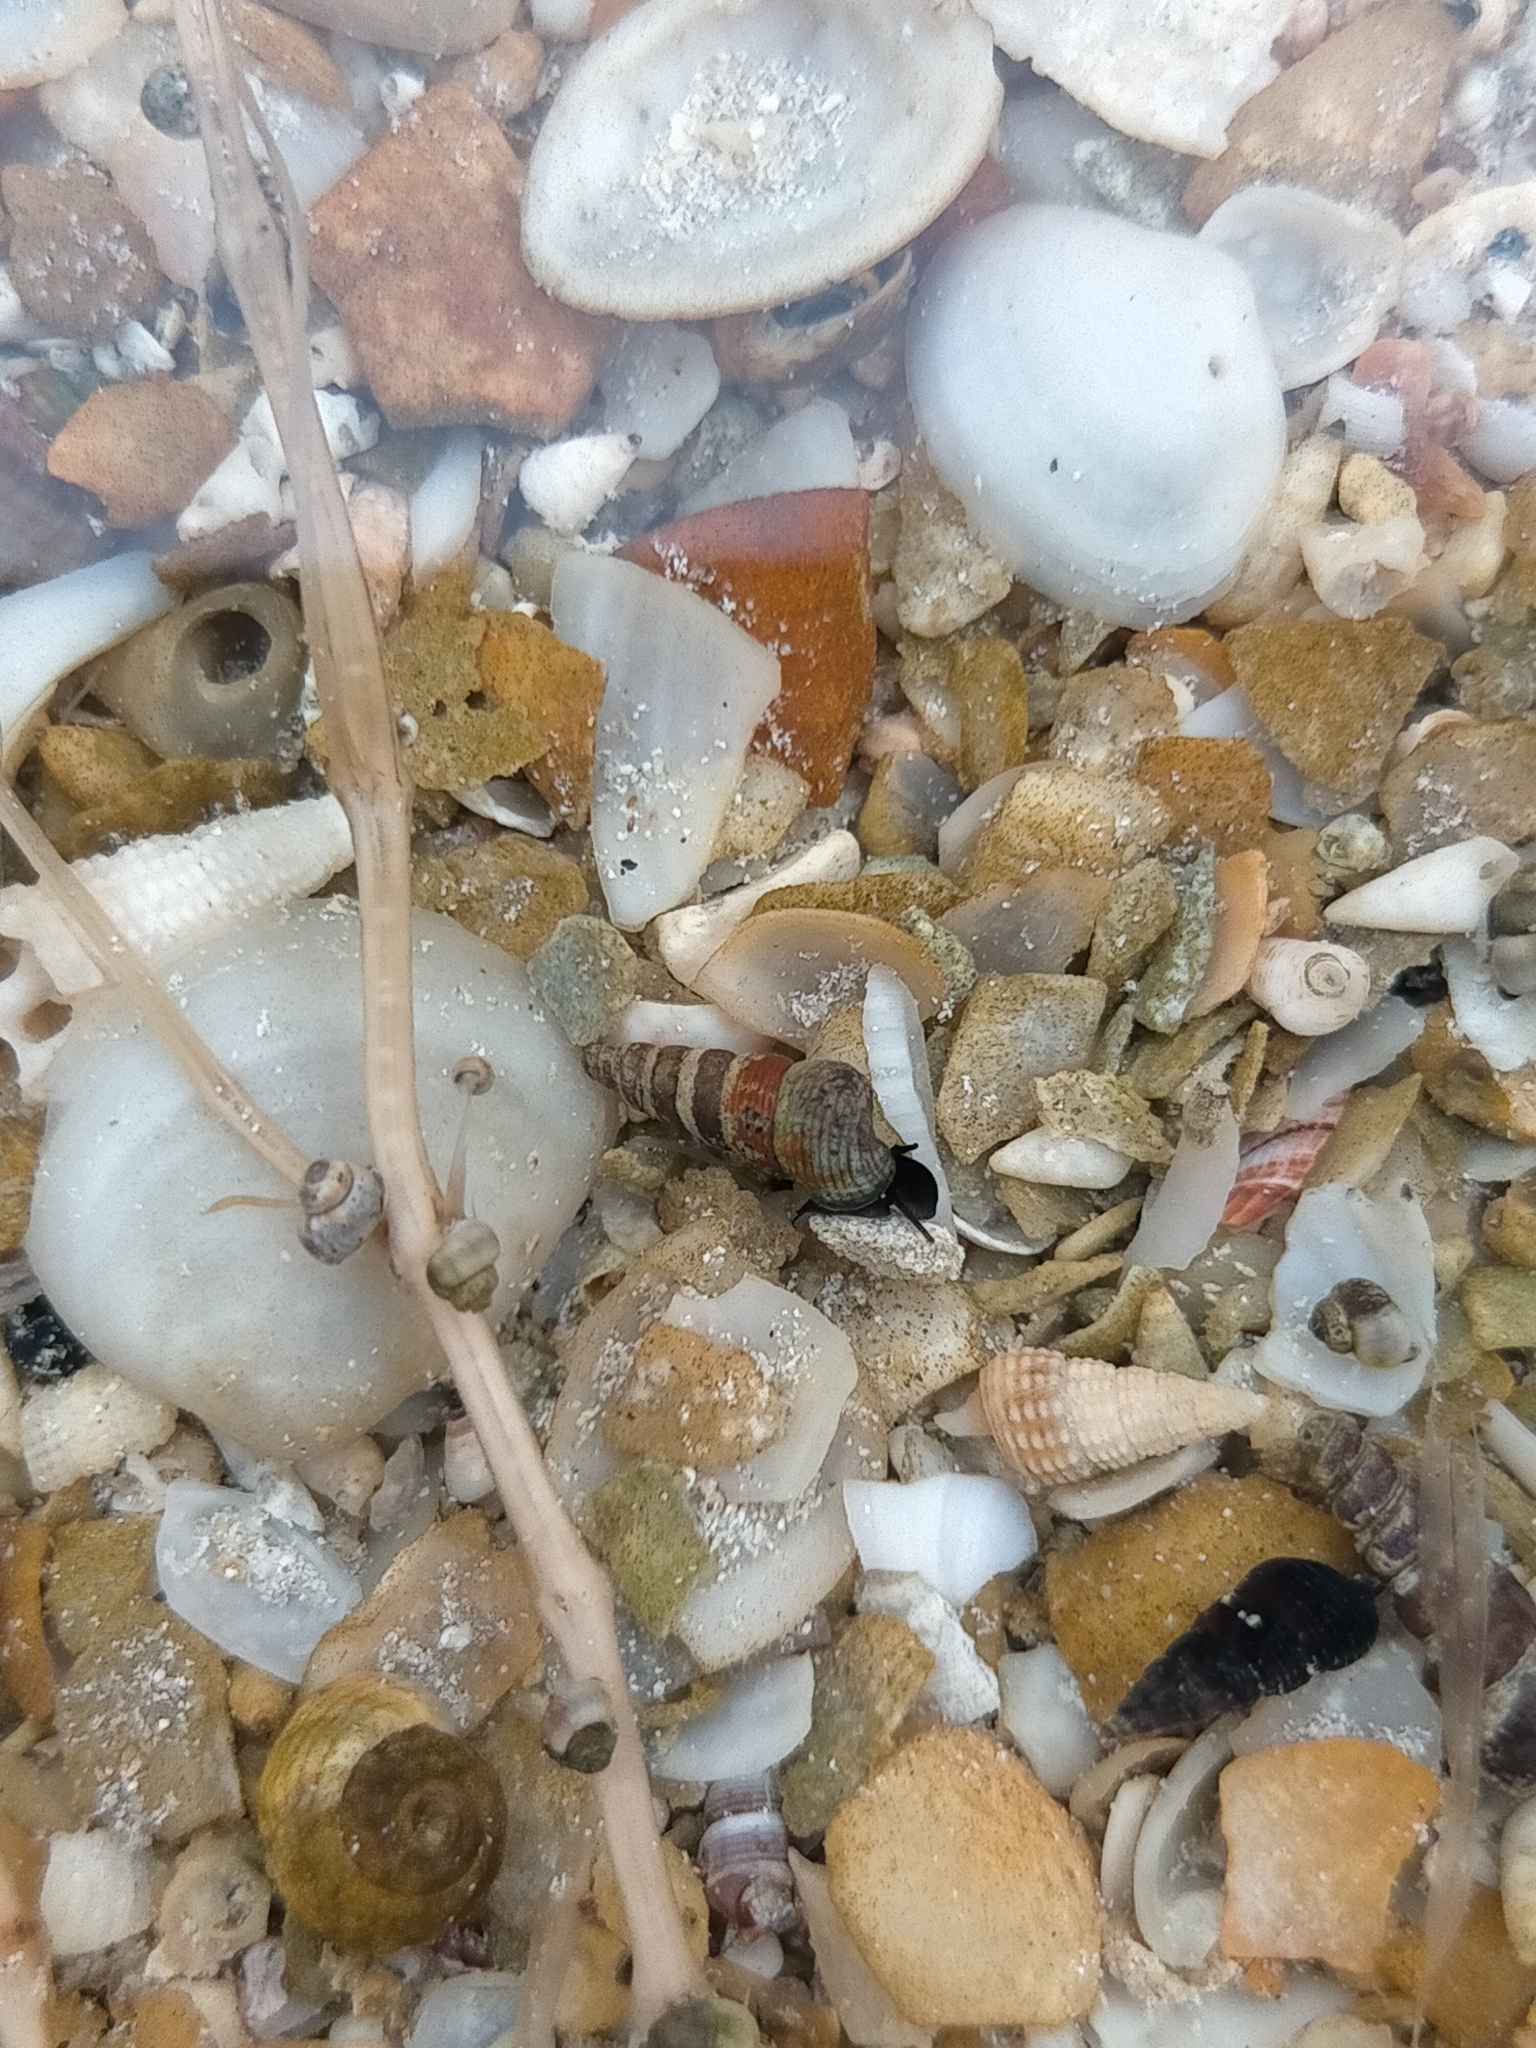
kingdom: Animalia
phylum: Mollusca
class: Gastropoda
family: Batillariidae
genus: Zeacumantus
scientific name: Zeacumantus plumbeus
